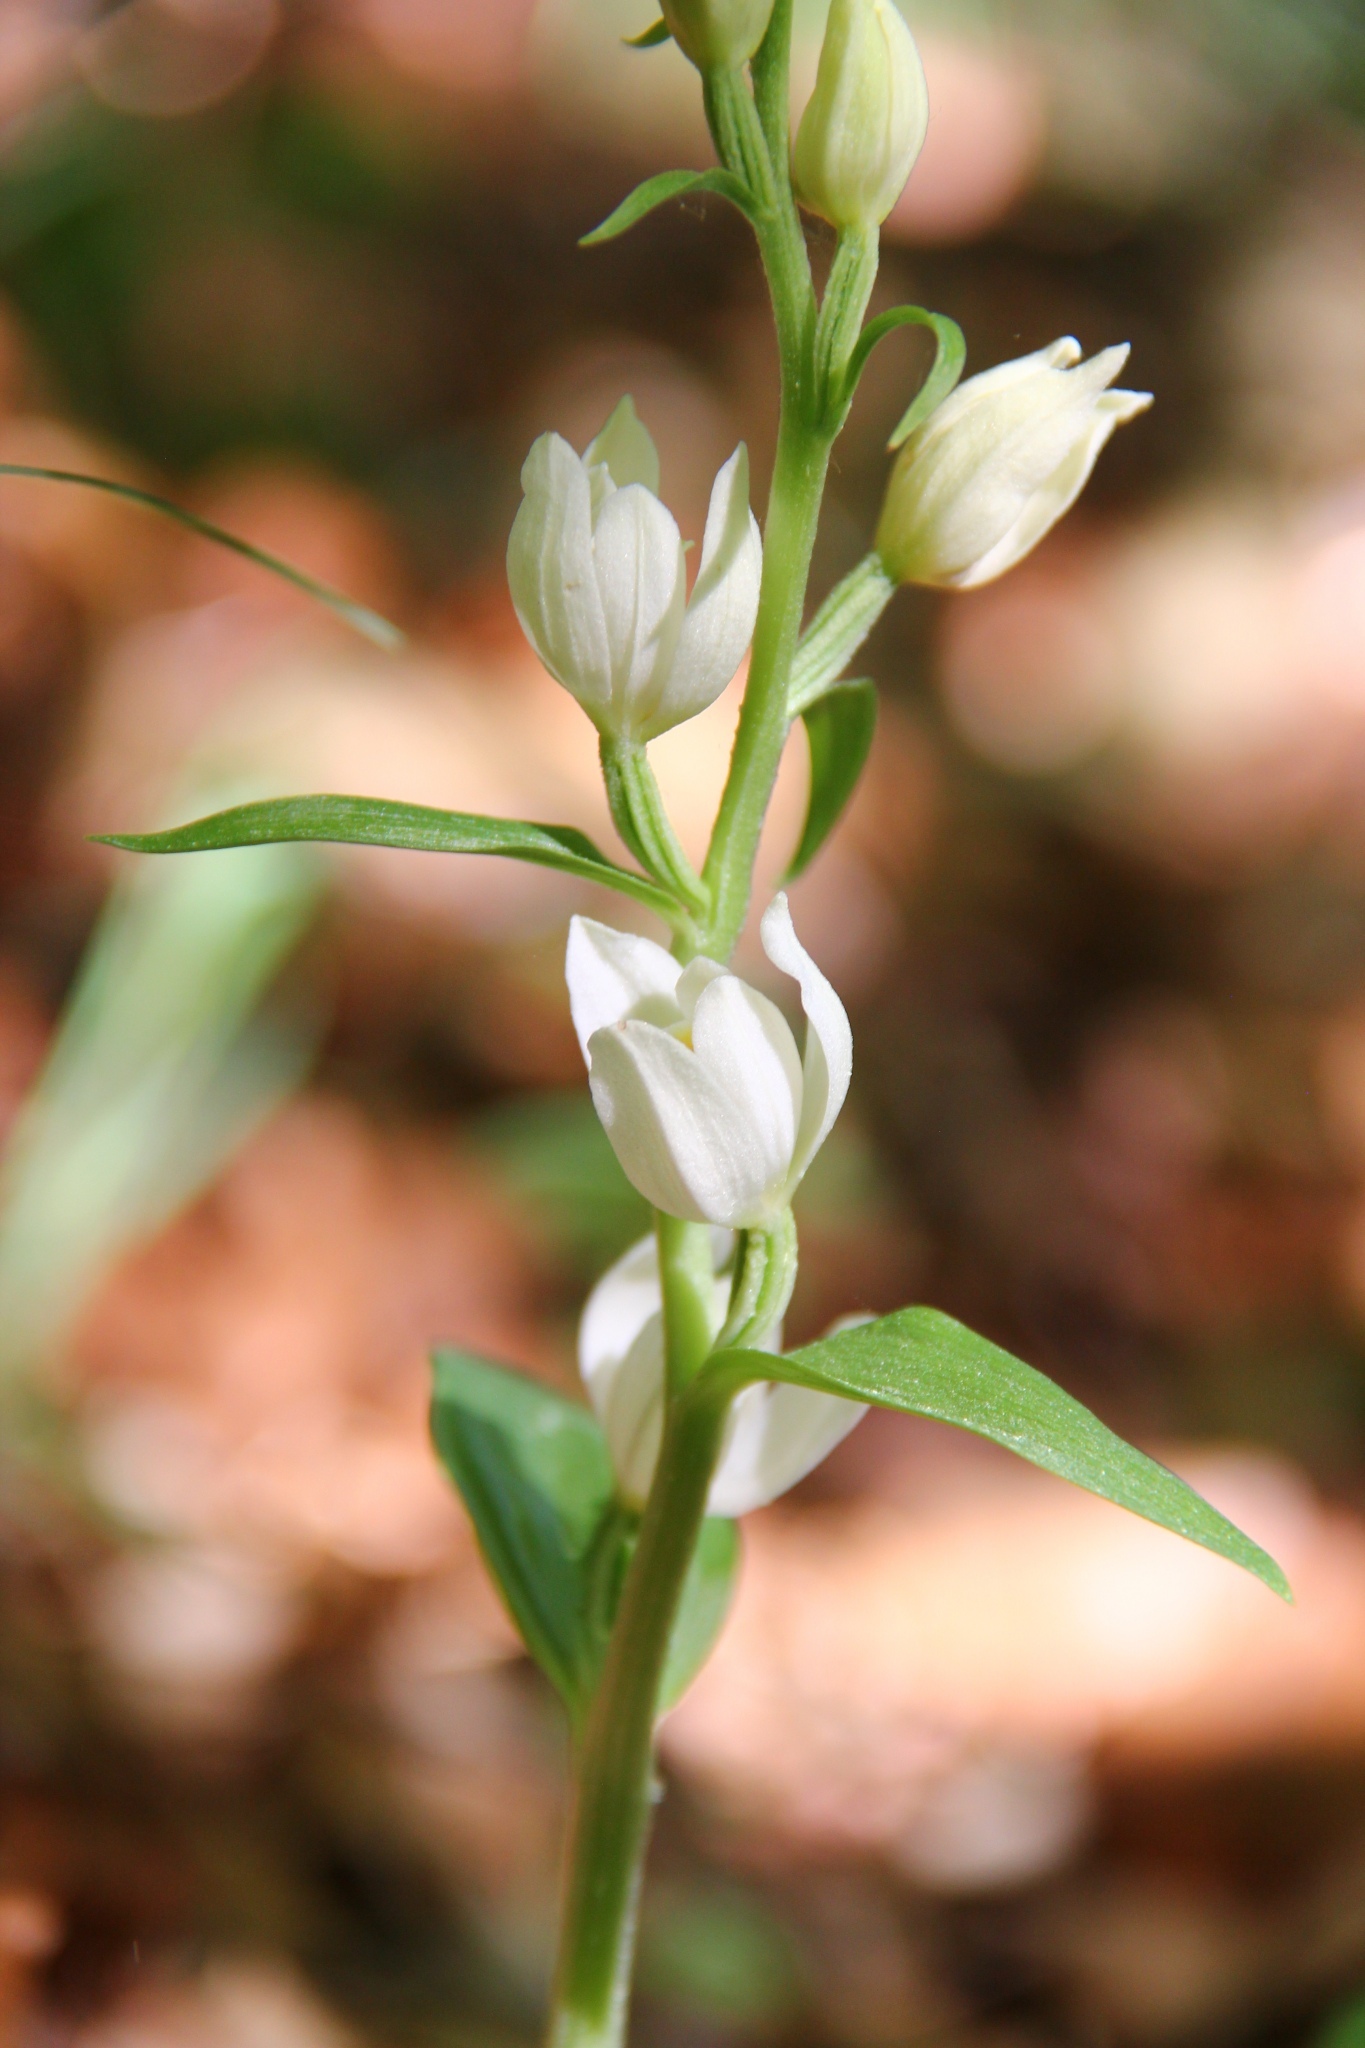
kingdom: Plantae
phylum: Tracheophyta
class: Liliopsida
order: Asparagales
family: Orchidaceae
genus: Cephalanthera
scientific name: Cephalanthera damasonium
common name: White helleborine
